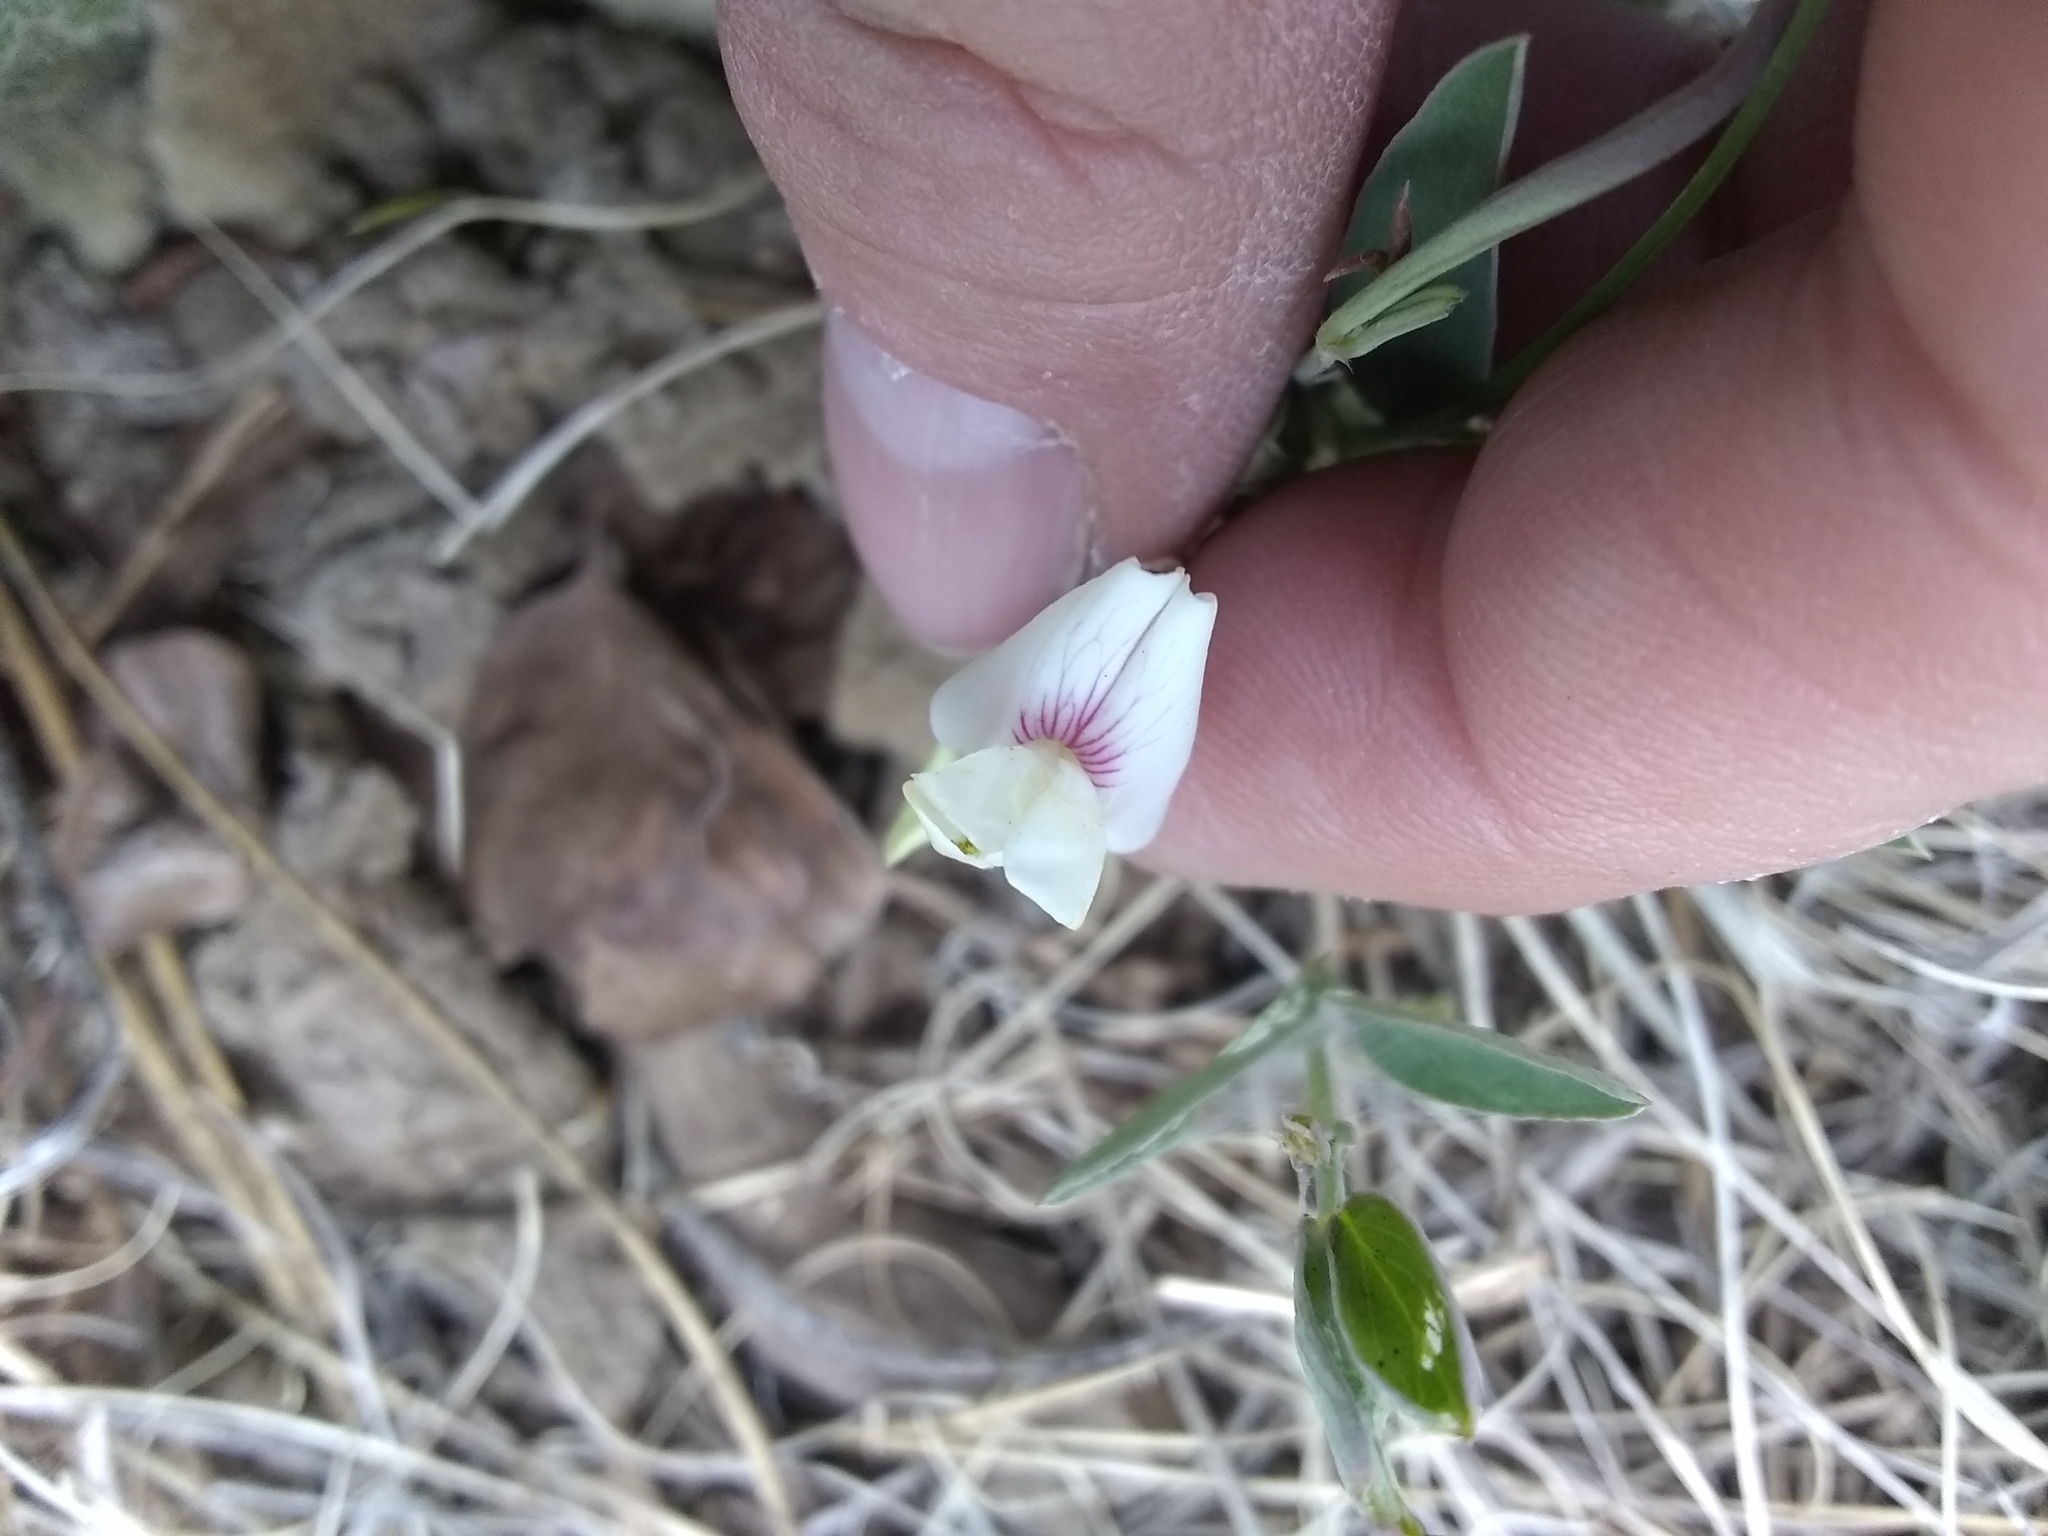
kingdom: Plantae
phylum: Tracheophyta
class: Magnoliopsida
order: Fabales
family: Fabaceae
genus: Lathyrus
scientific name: Lathyrus lanszwertii
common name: Lanszwert's vetchling
